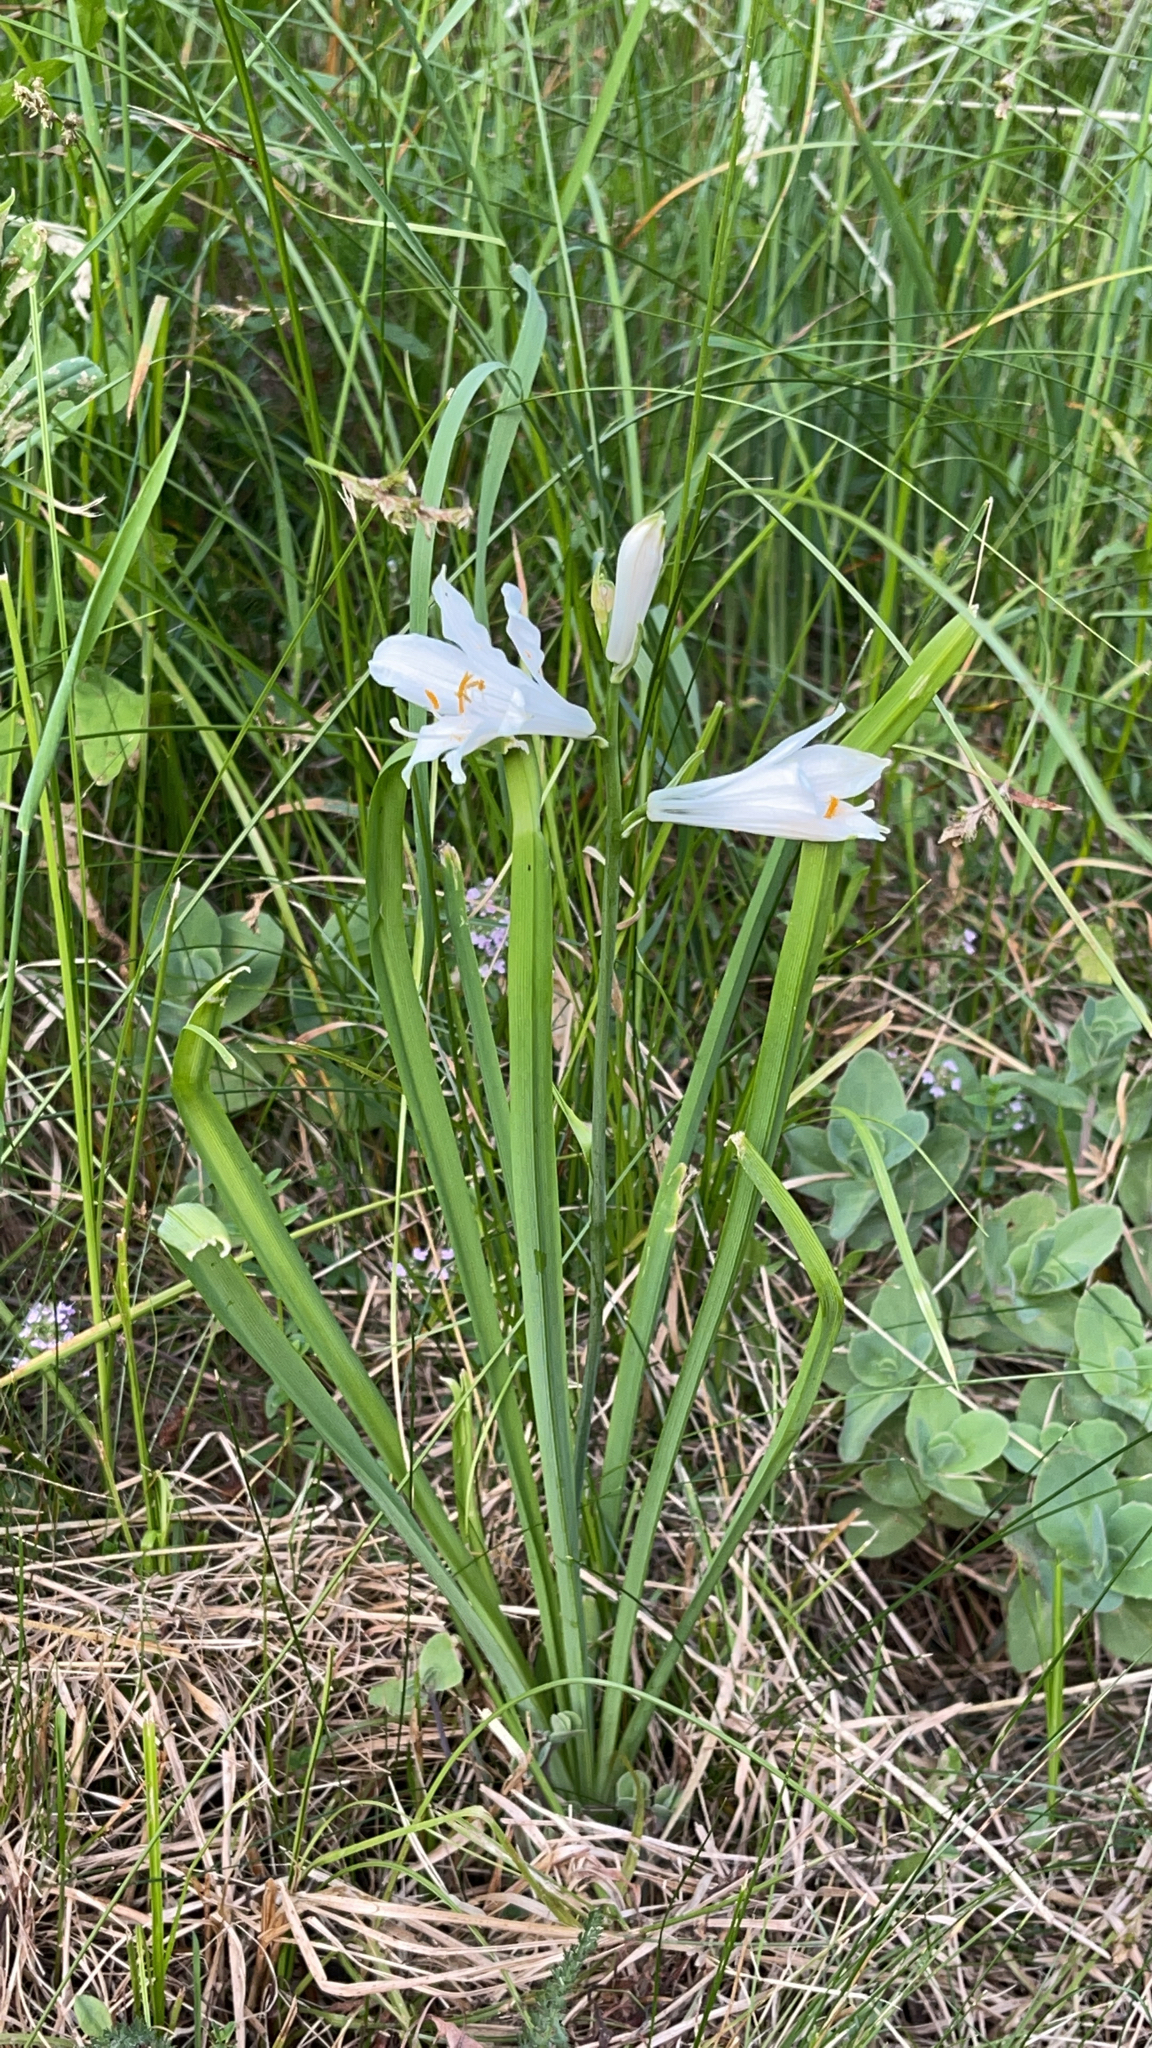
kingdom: Plantae
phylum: Tracheophyta
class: Liliopsida
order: Asparagales
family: Asparagaceae
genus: Paradisea
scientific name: Paradisea liliastrum
